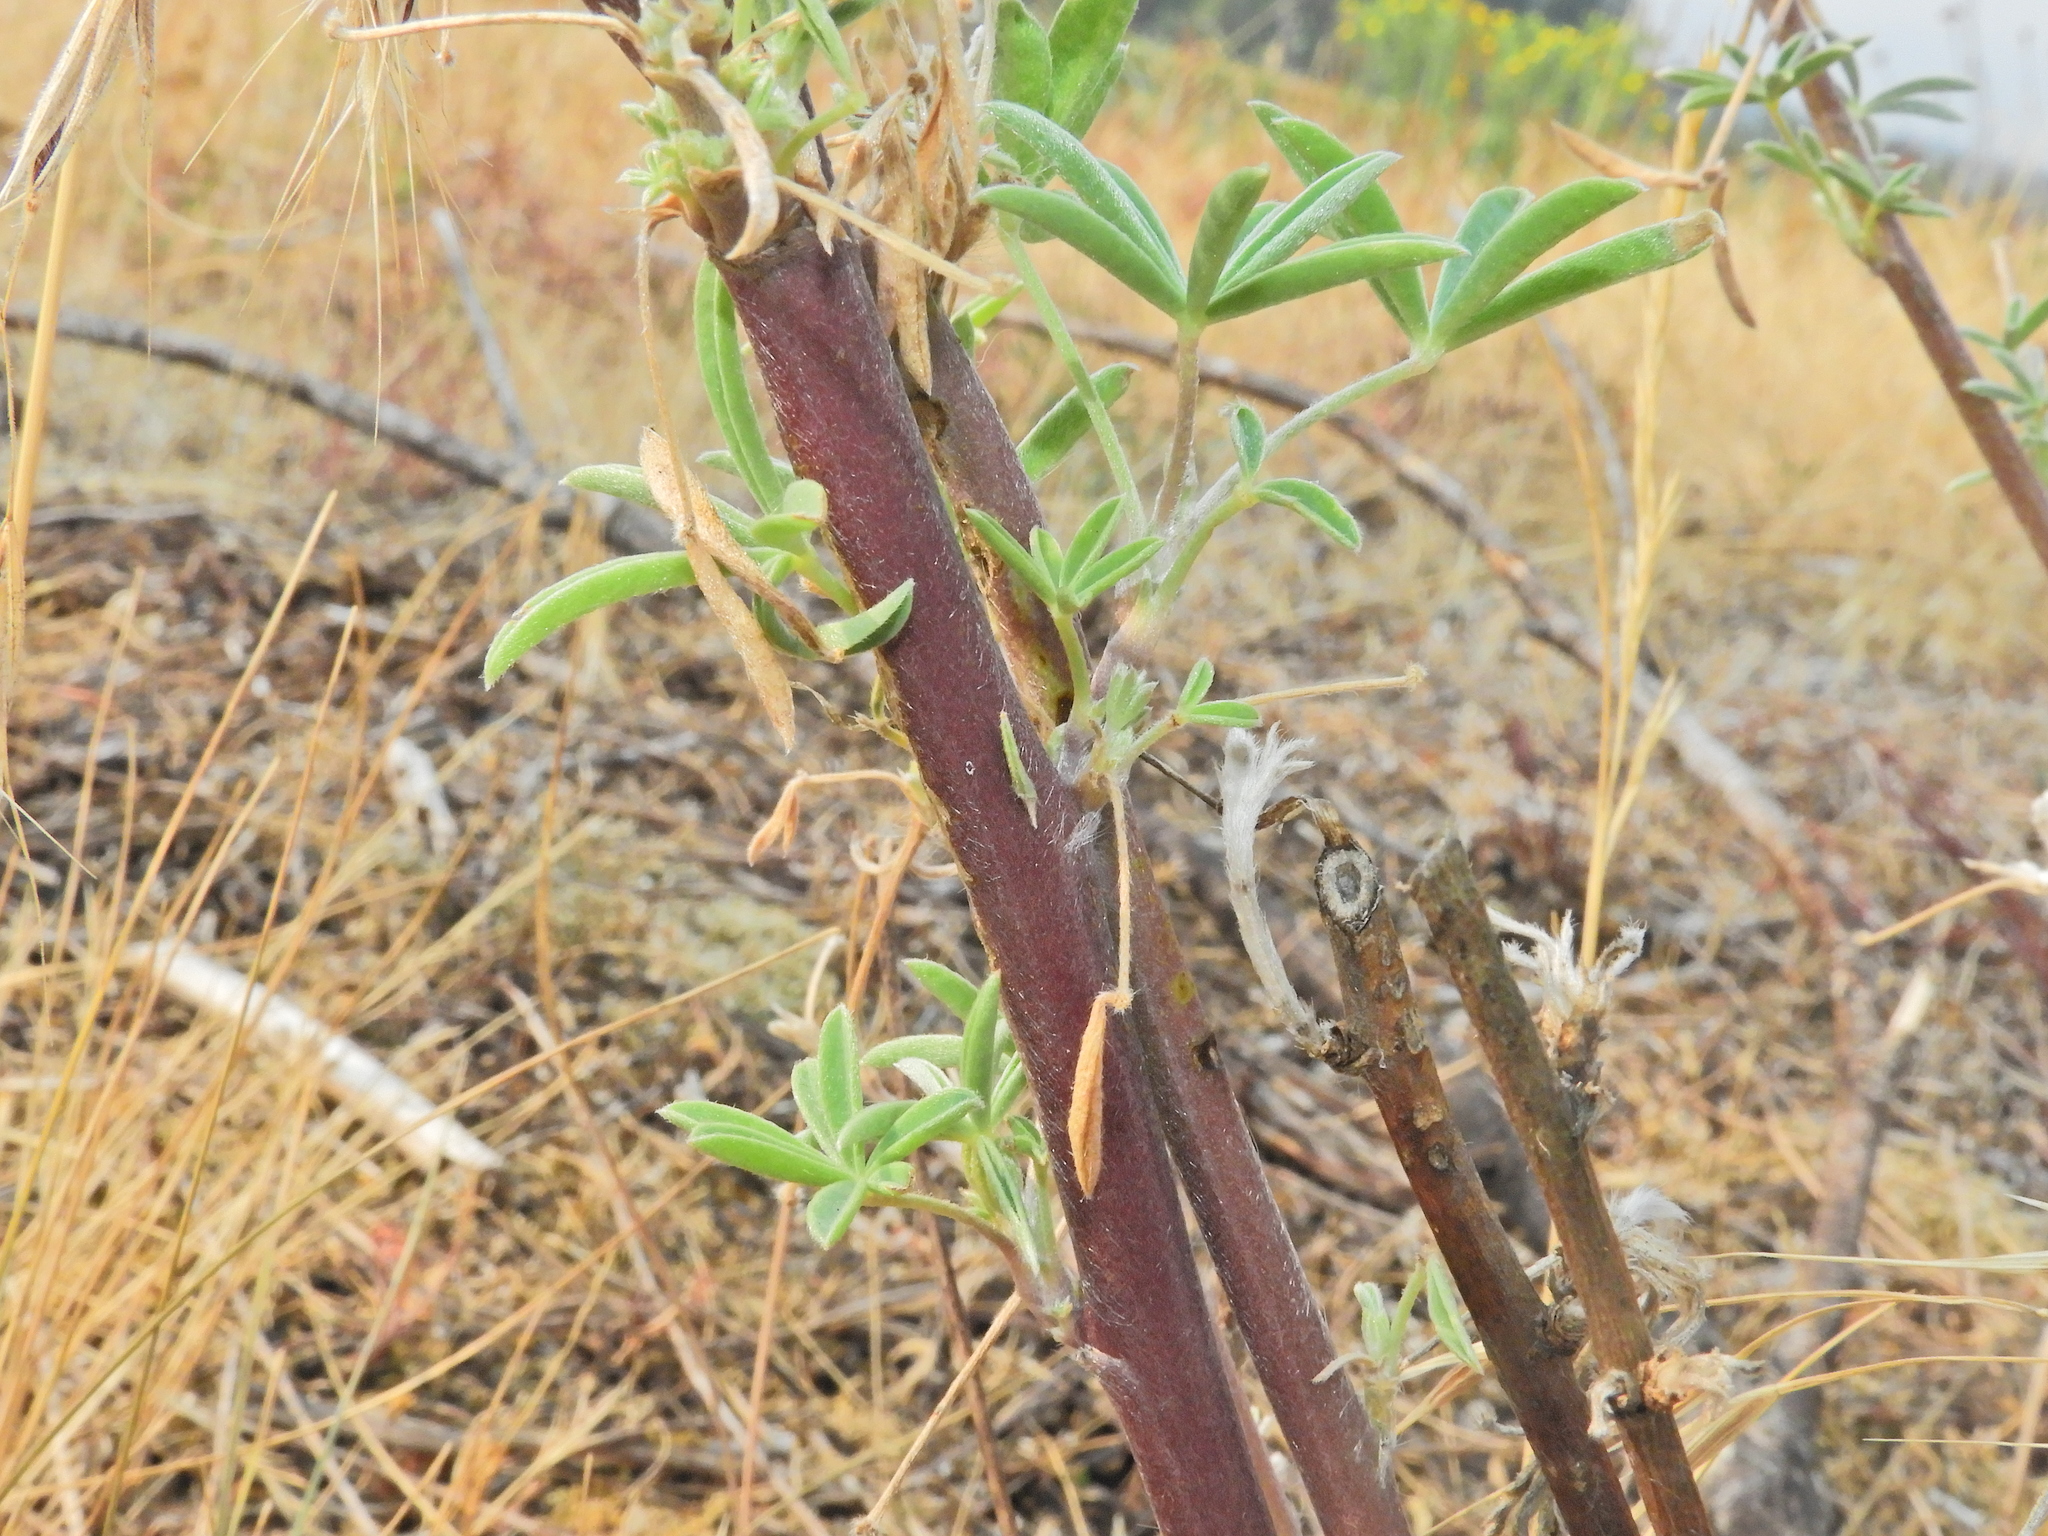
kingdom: Plantae
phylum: Tracheophyta
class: Magnoliopsida
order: Fabales
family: Fabaceae
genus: Lupinus
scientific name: Lupinus arboreus
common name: Yellow bush lupine
